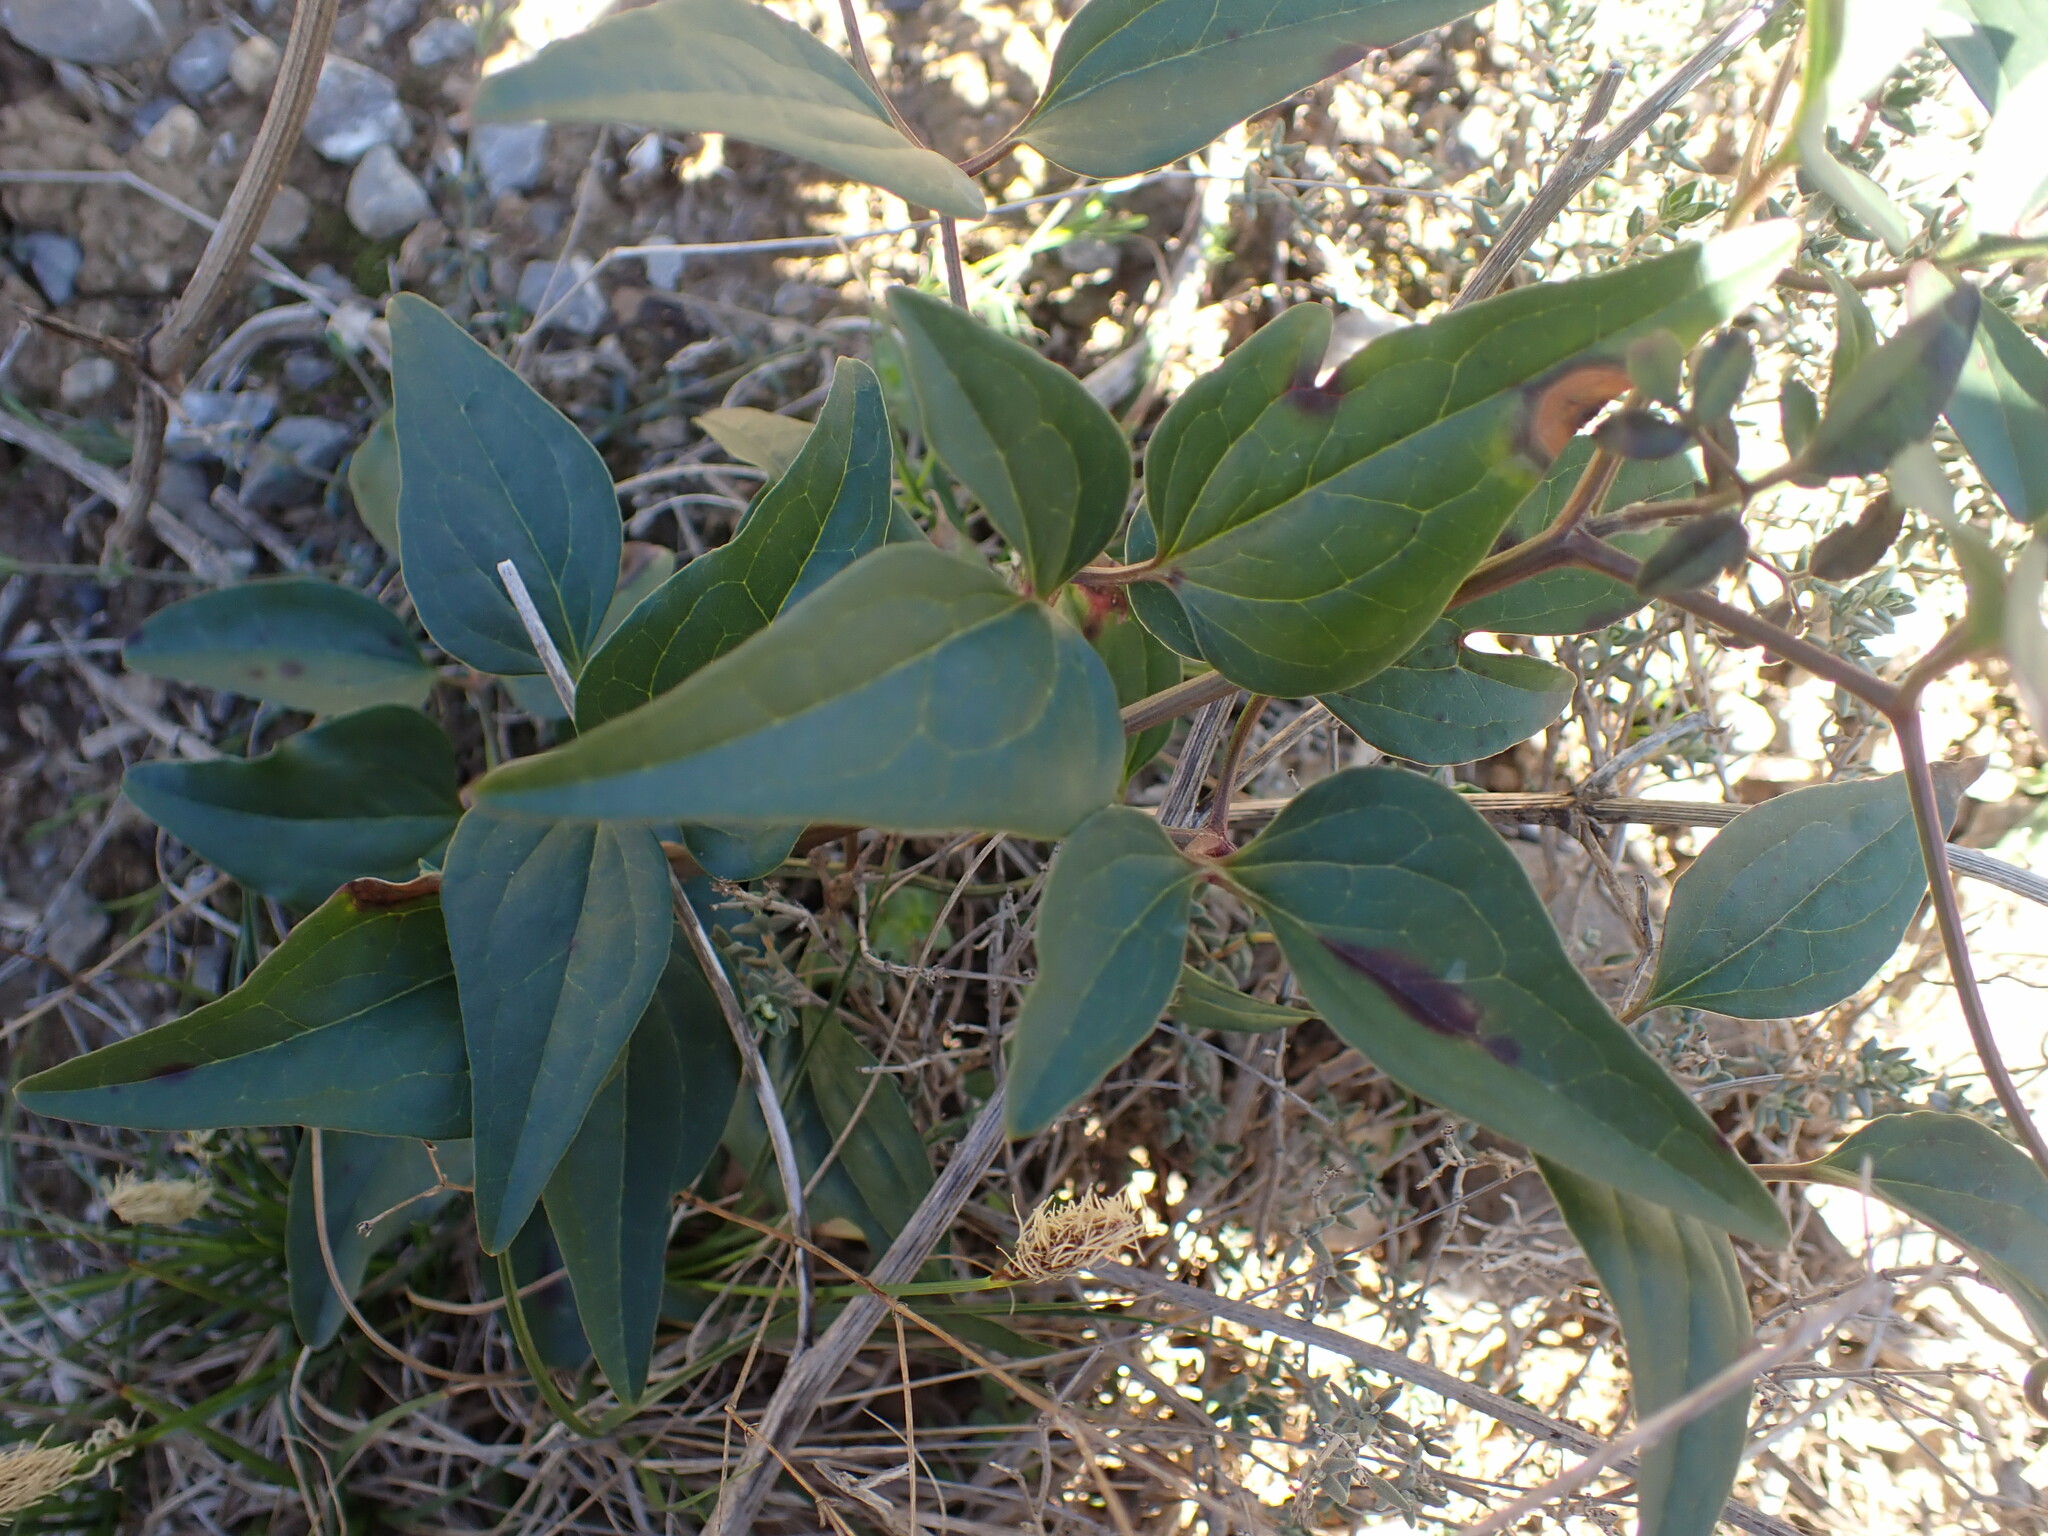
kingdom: Plantae
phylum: Tracheophyta
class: Magnoliopsida
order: Ranunculales
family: Ranunculaceae
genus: Clematis
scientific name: Clematis flammula
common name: Virgin's-bower
